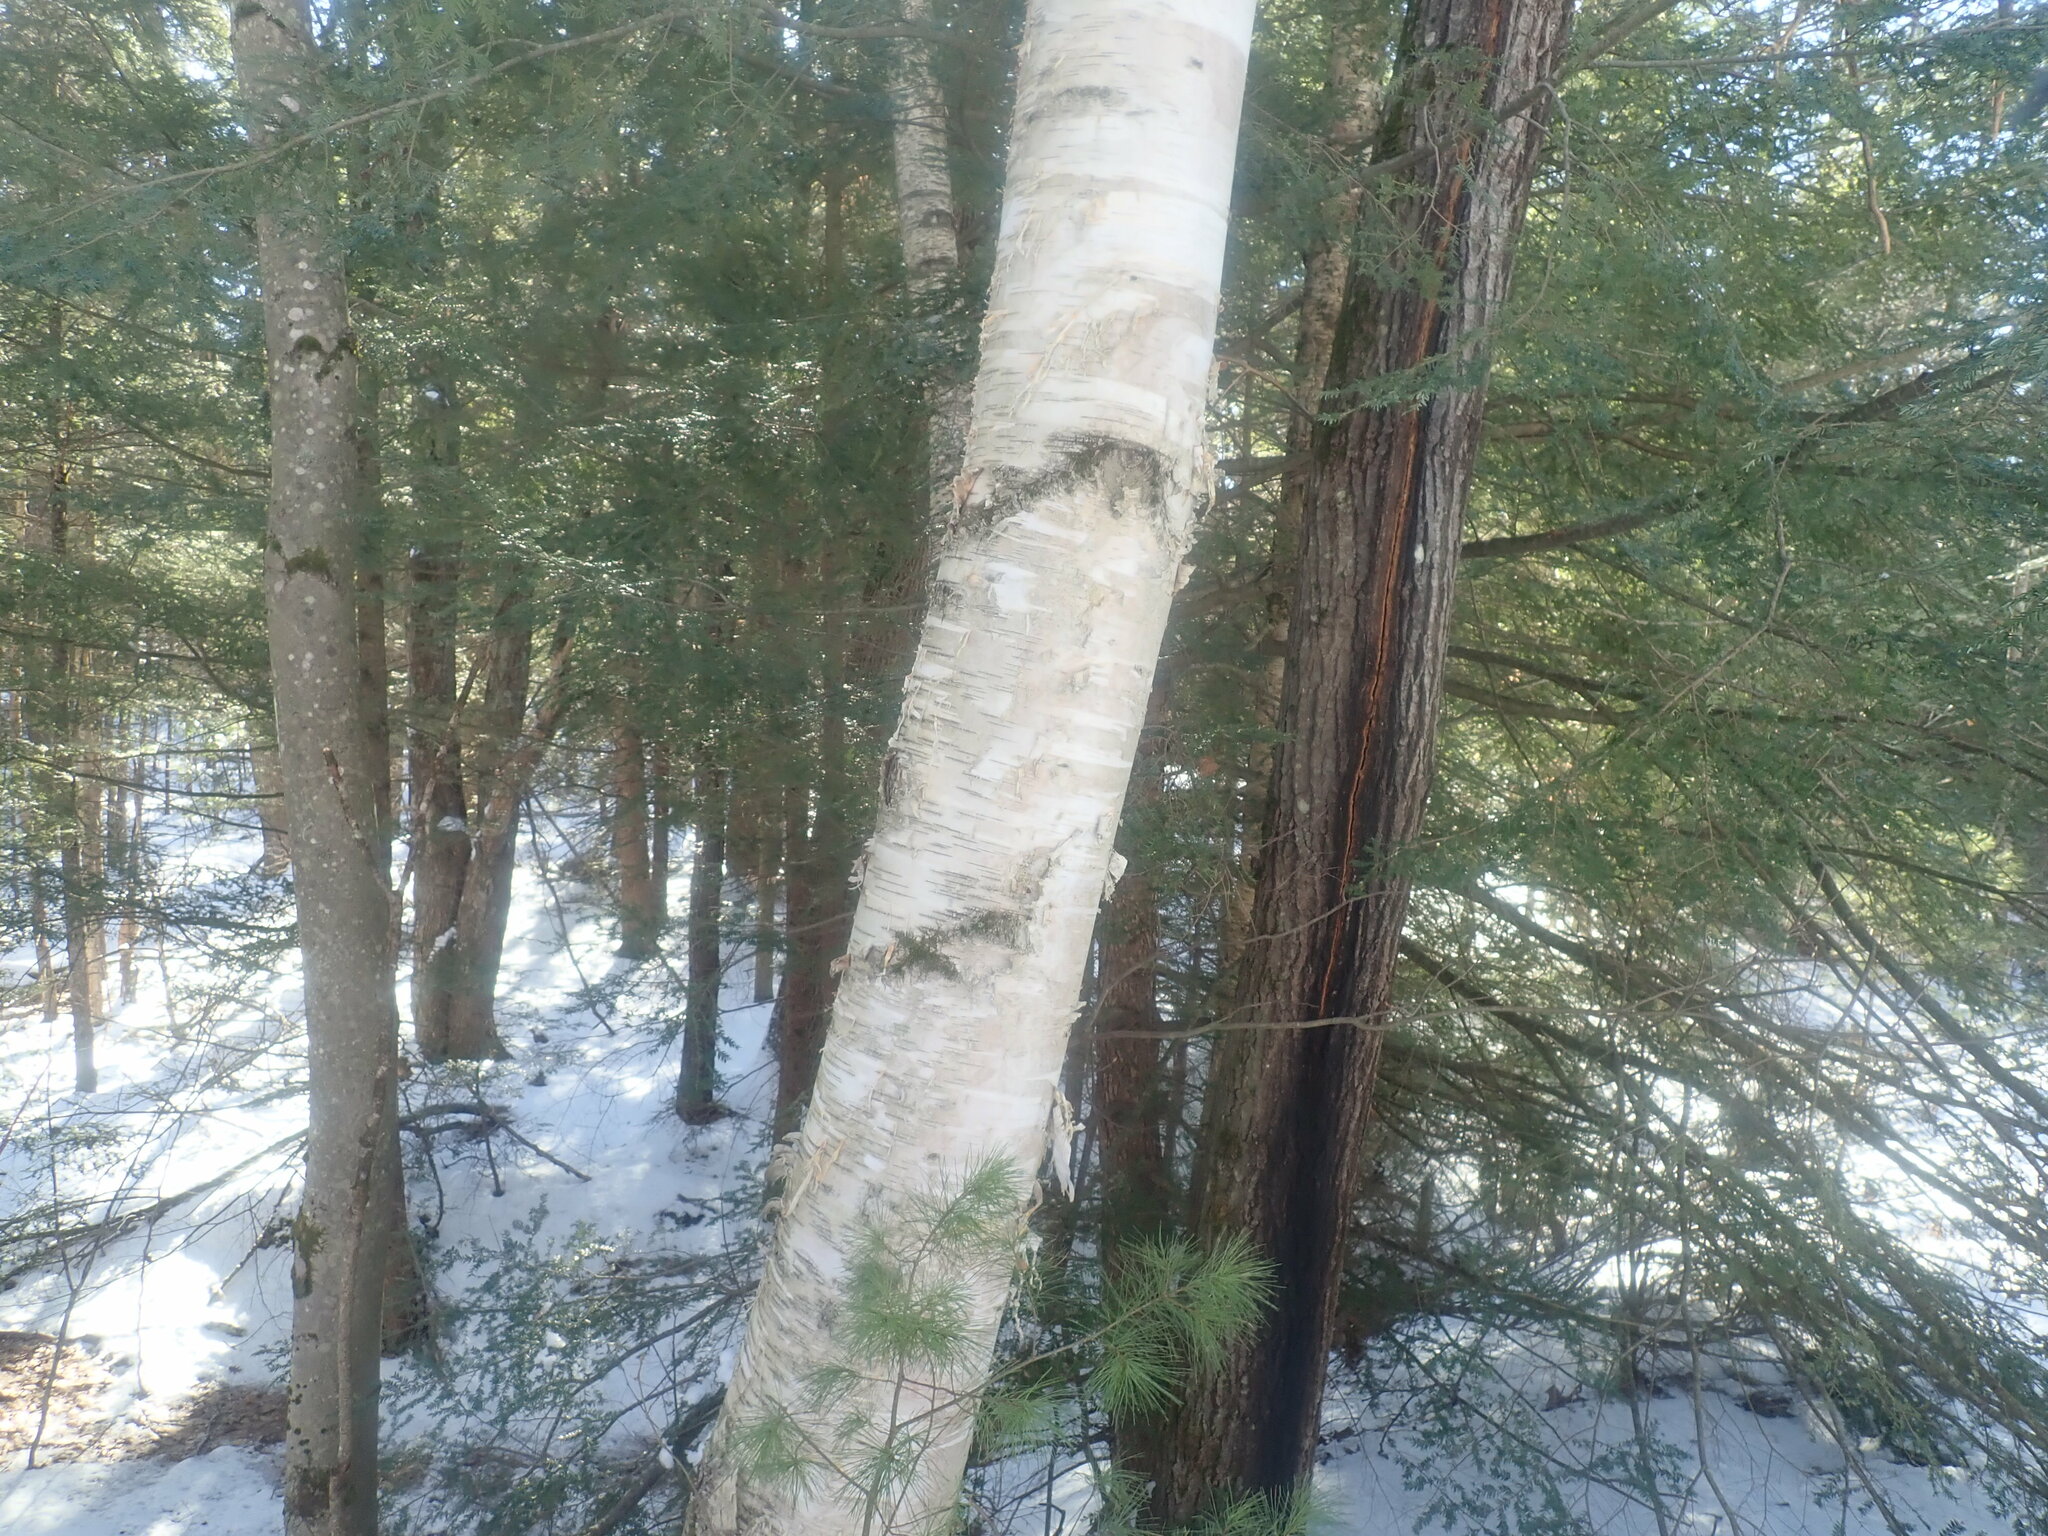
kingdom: Plantae
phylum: Tracheophyta
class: Magnoliopsida
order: Fagales
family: Betulaceae
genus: Betula
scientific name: Betula papyrifera
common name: Paper birch
